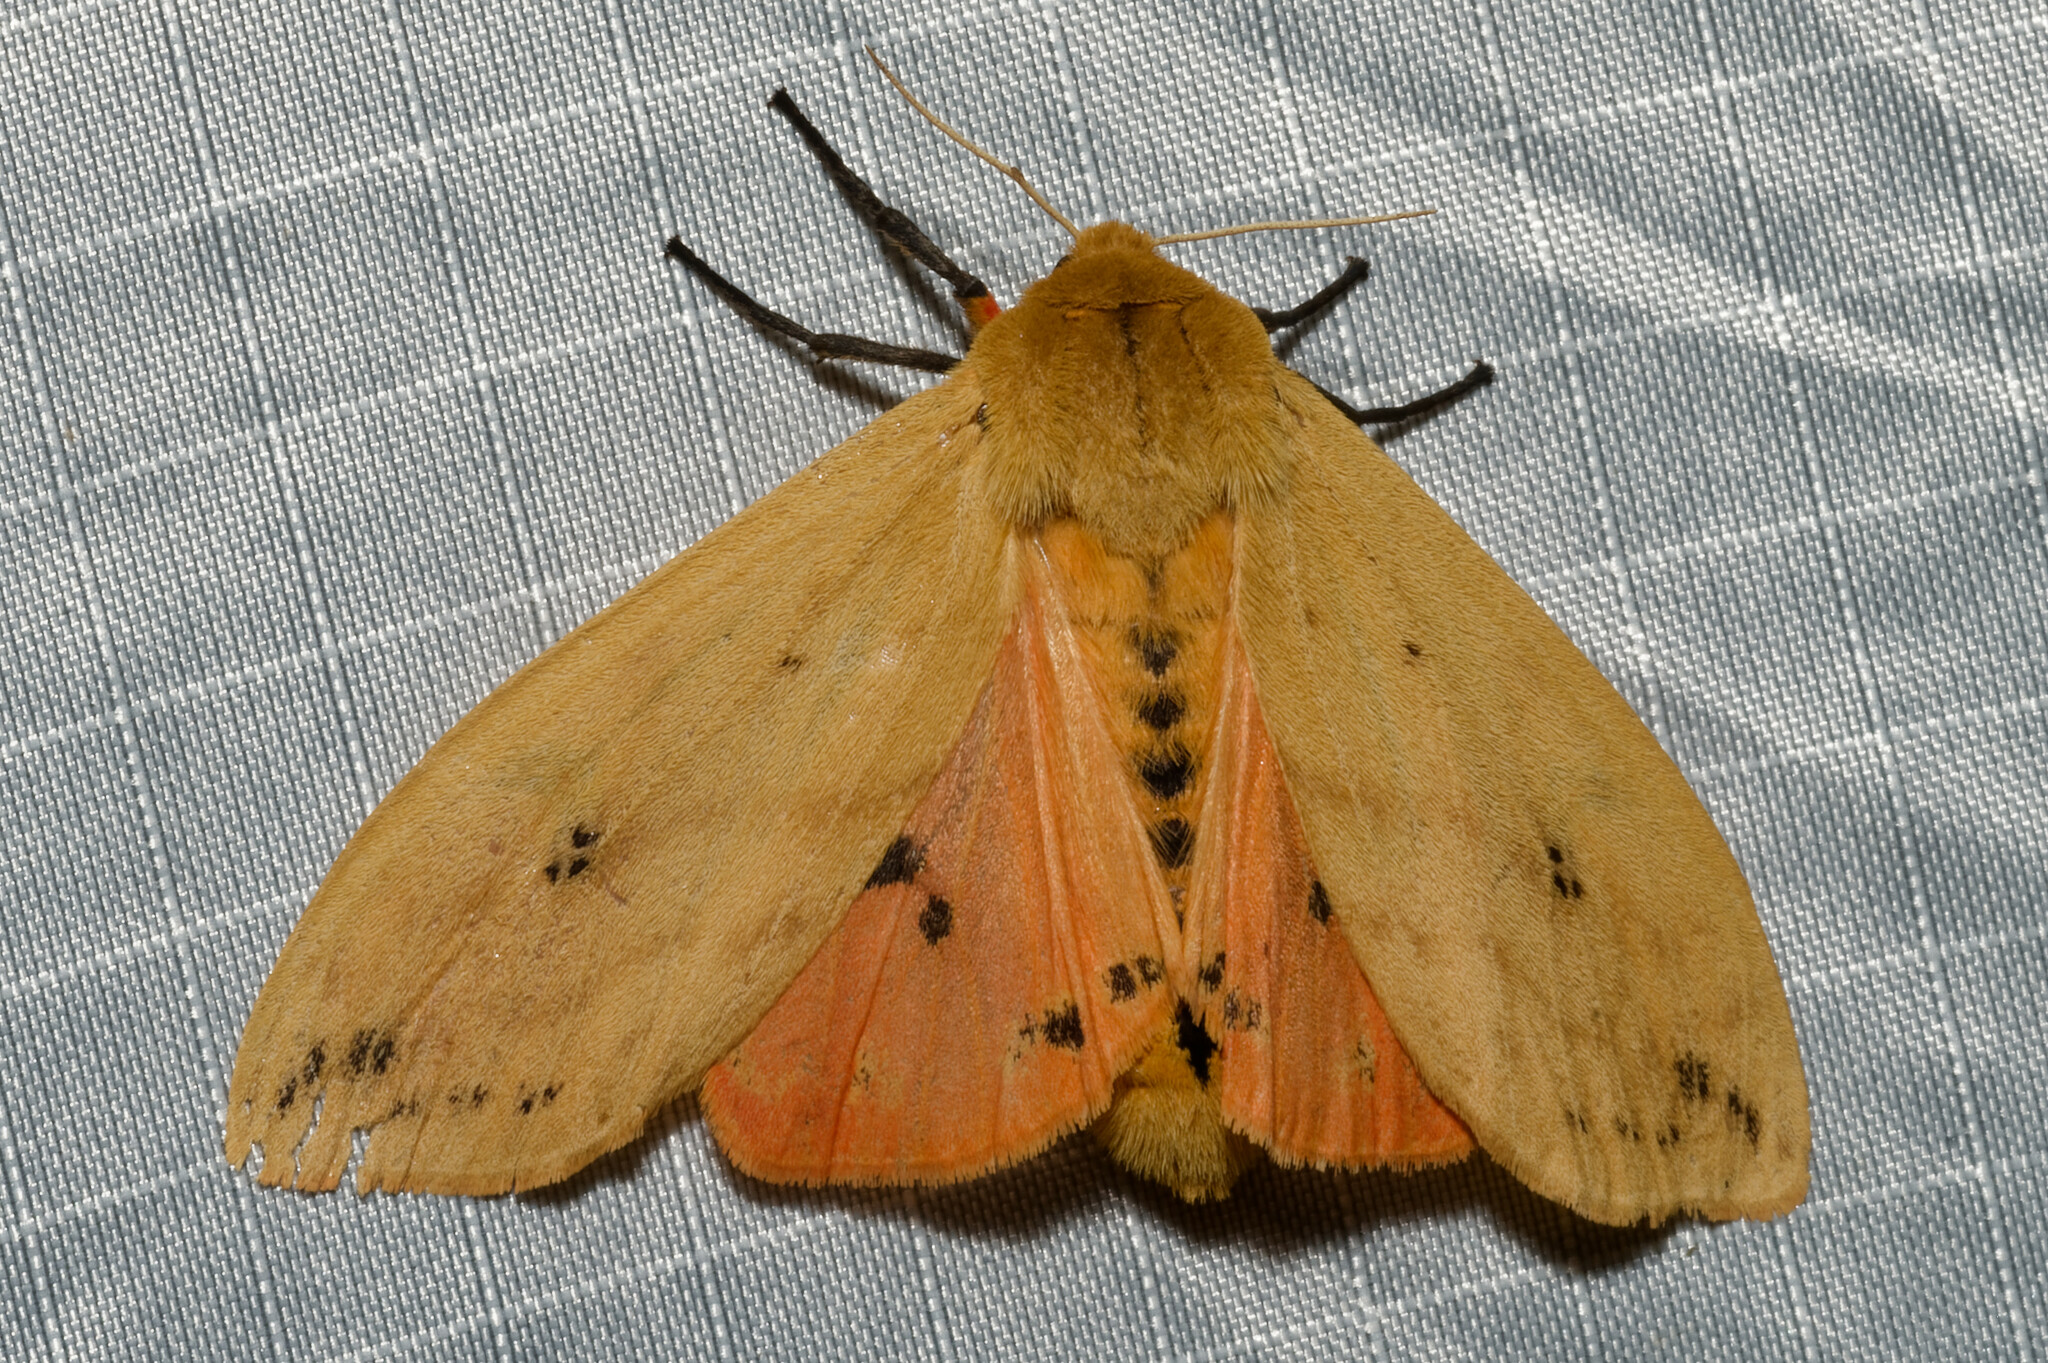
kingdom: Animalia
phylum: Arthropoda
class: Insecta
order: Lepidoptera
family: Erebidae
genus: Pyrrharctia
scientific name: Pyrrharctia isabella
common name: Isabella tiger moth
